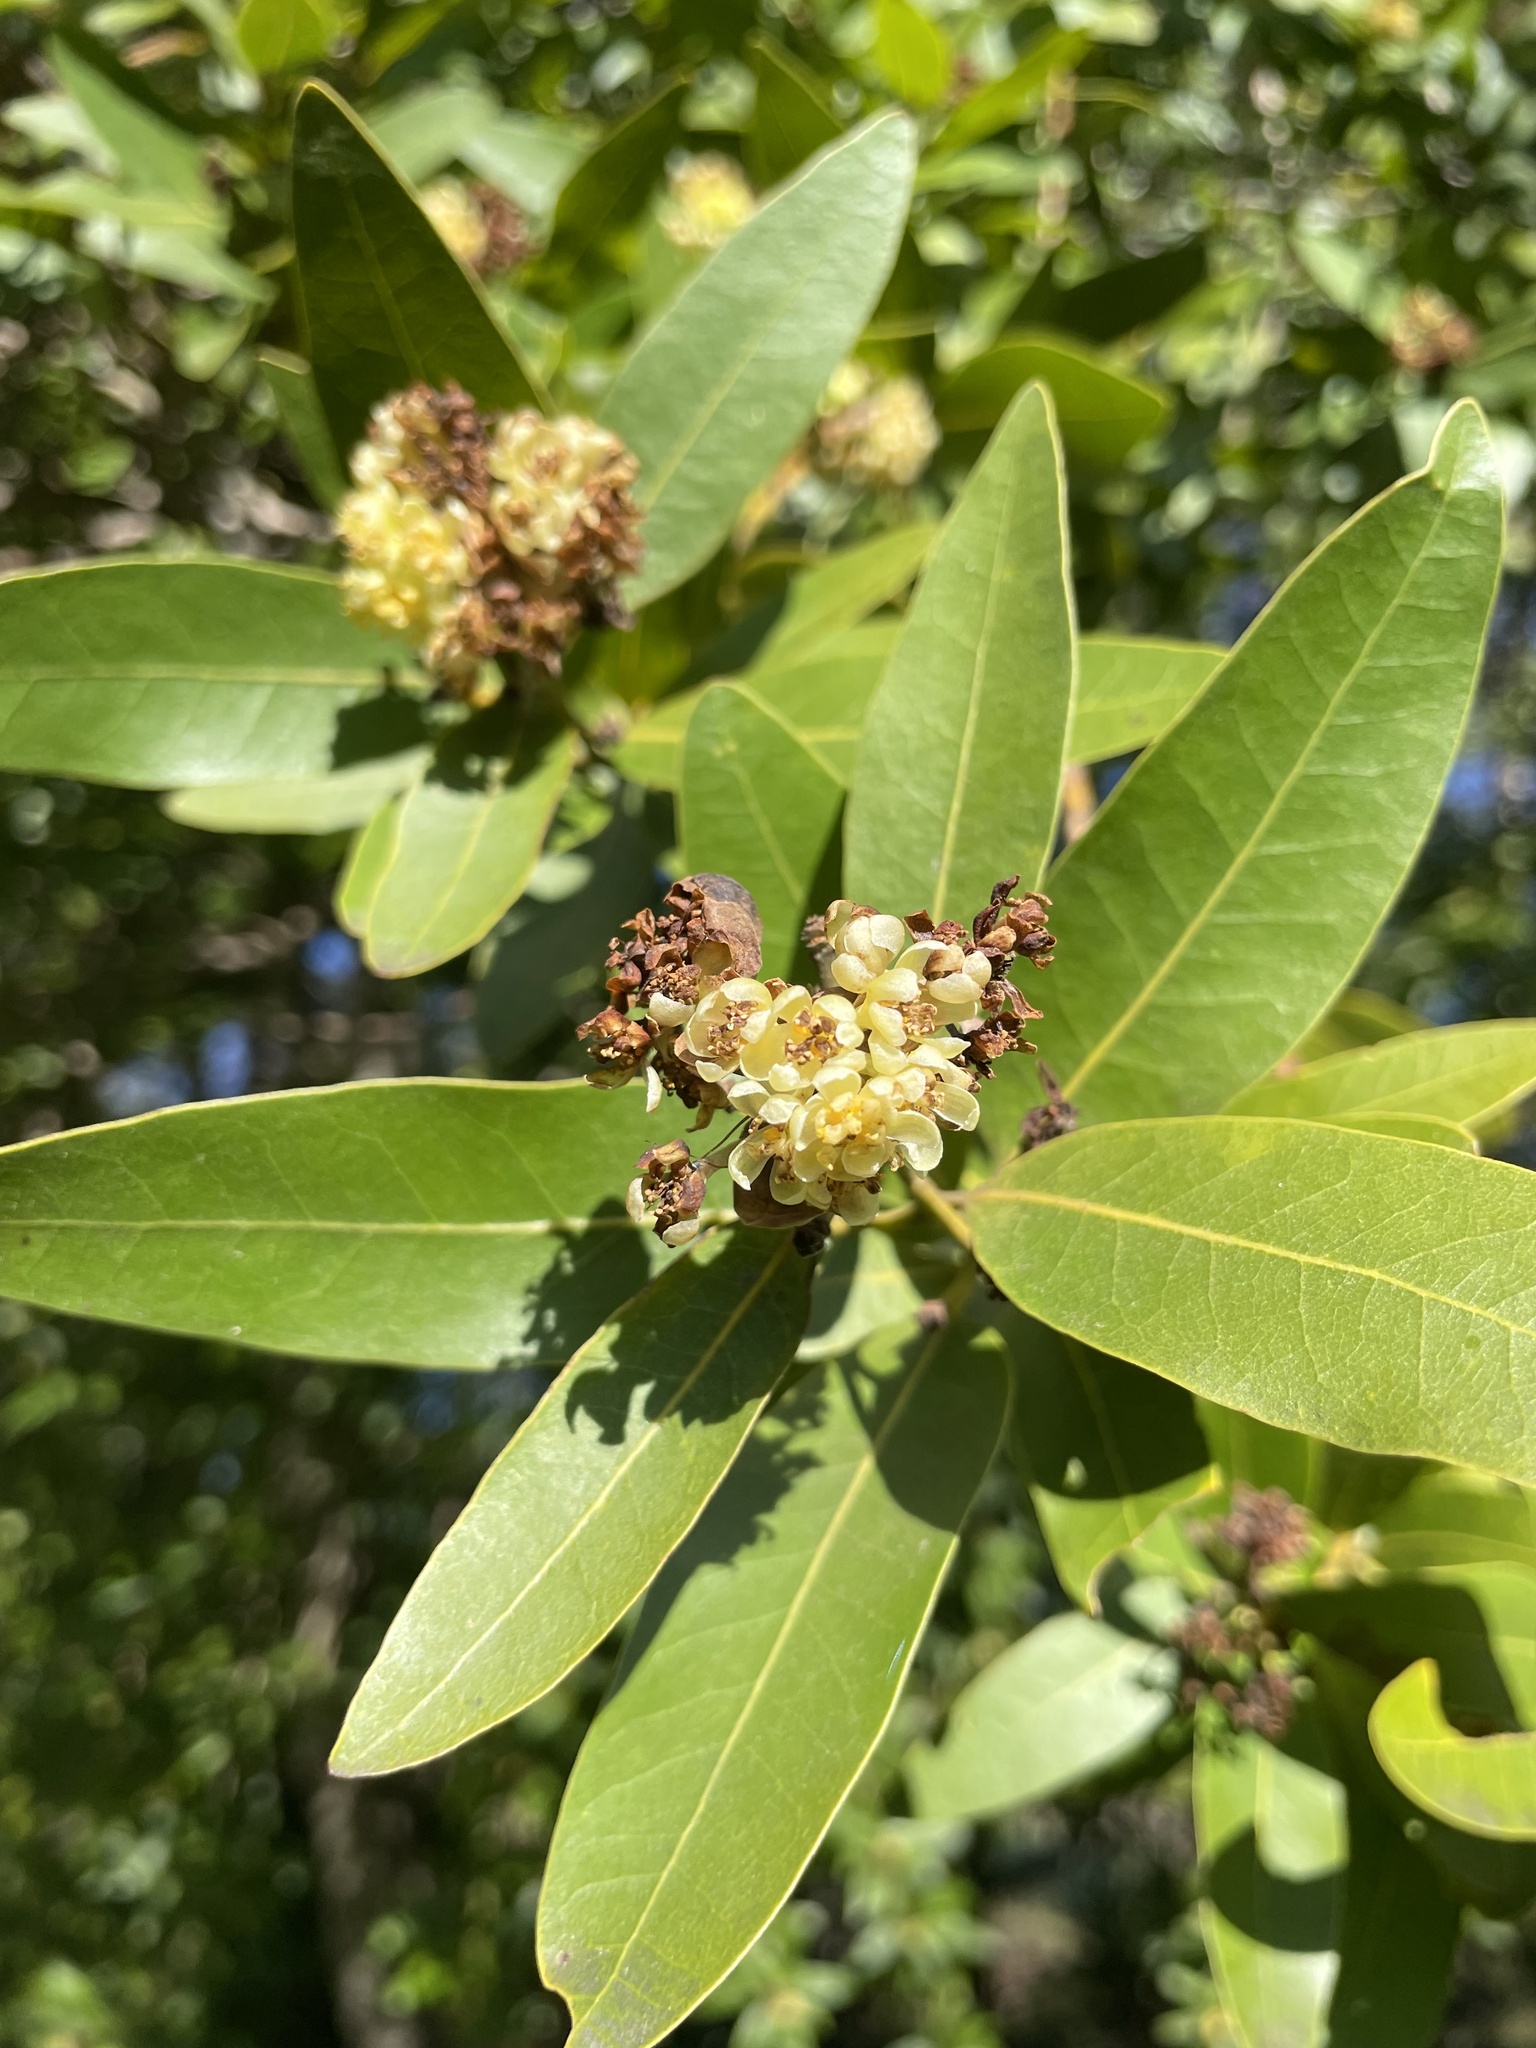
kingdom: Plantae
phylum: Tracheophyta
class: Magnoliopsida
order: Laurales
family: Lauraceae
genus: Umbellularia
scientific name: Umbellularia californica
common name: California bay
